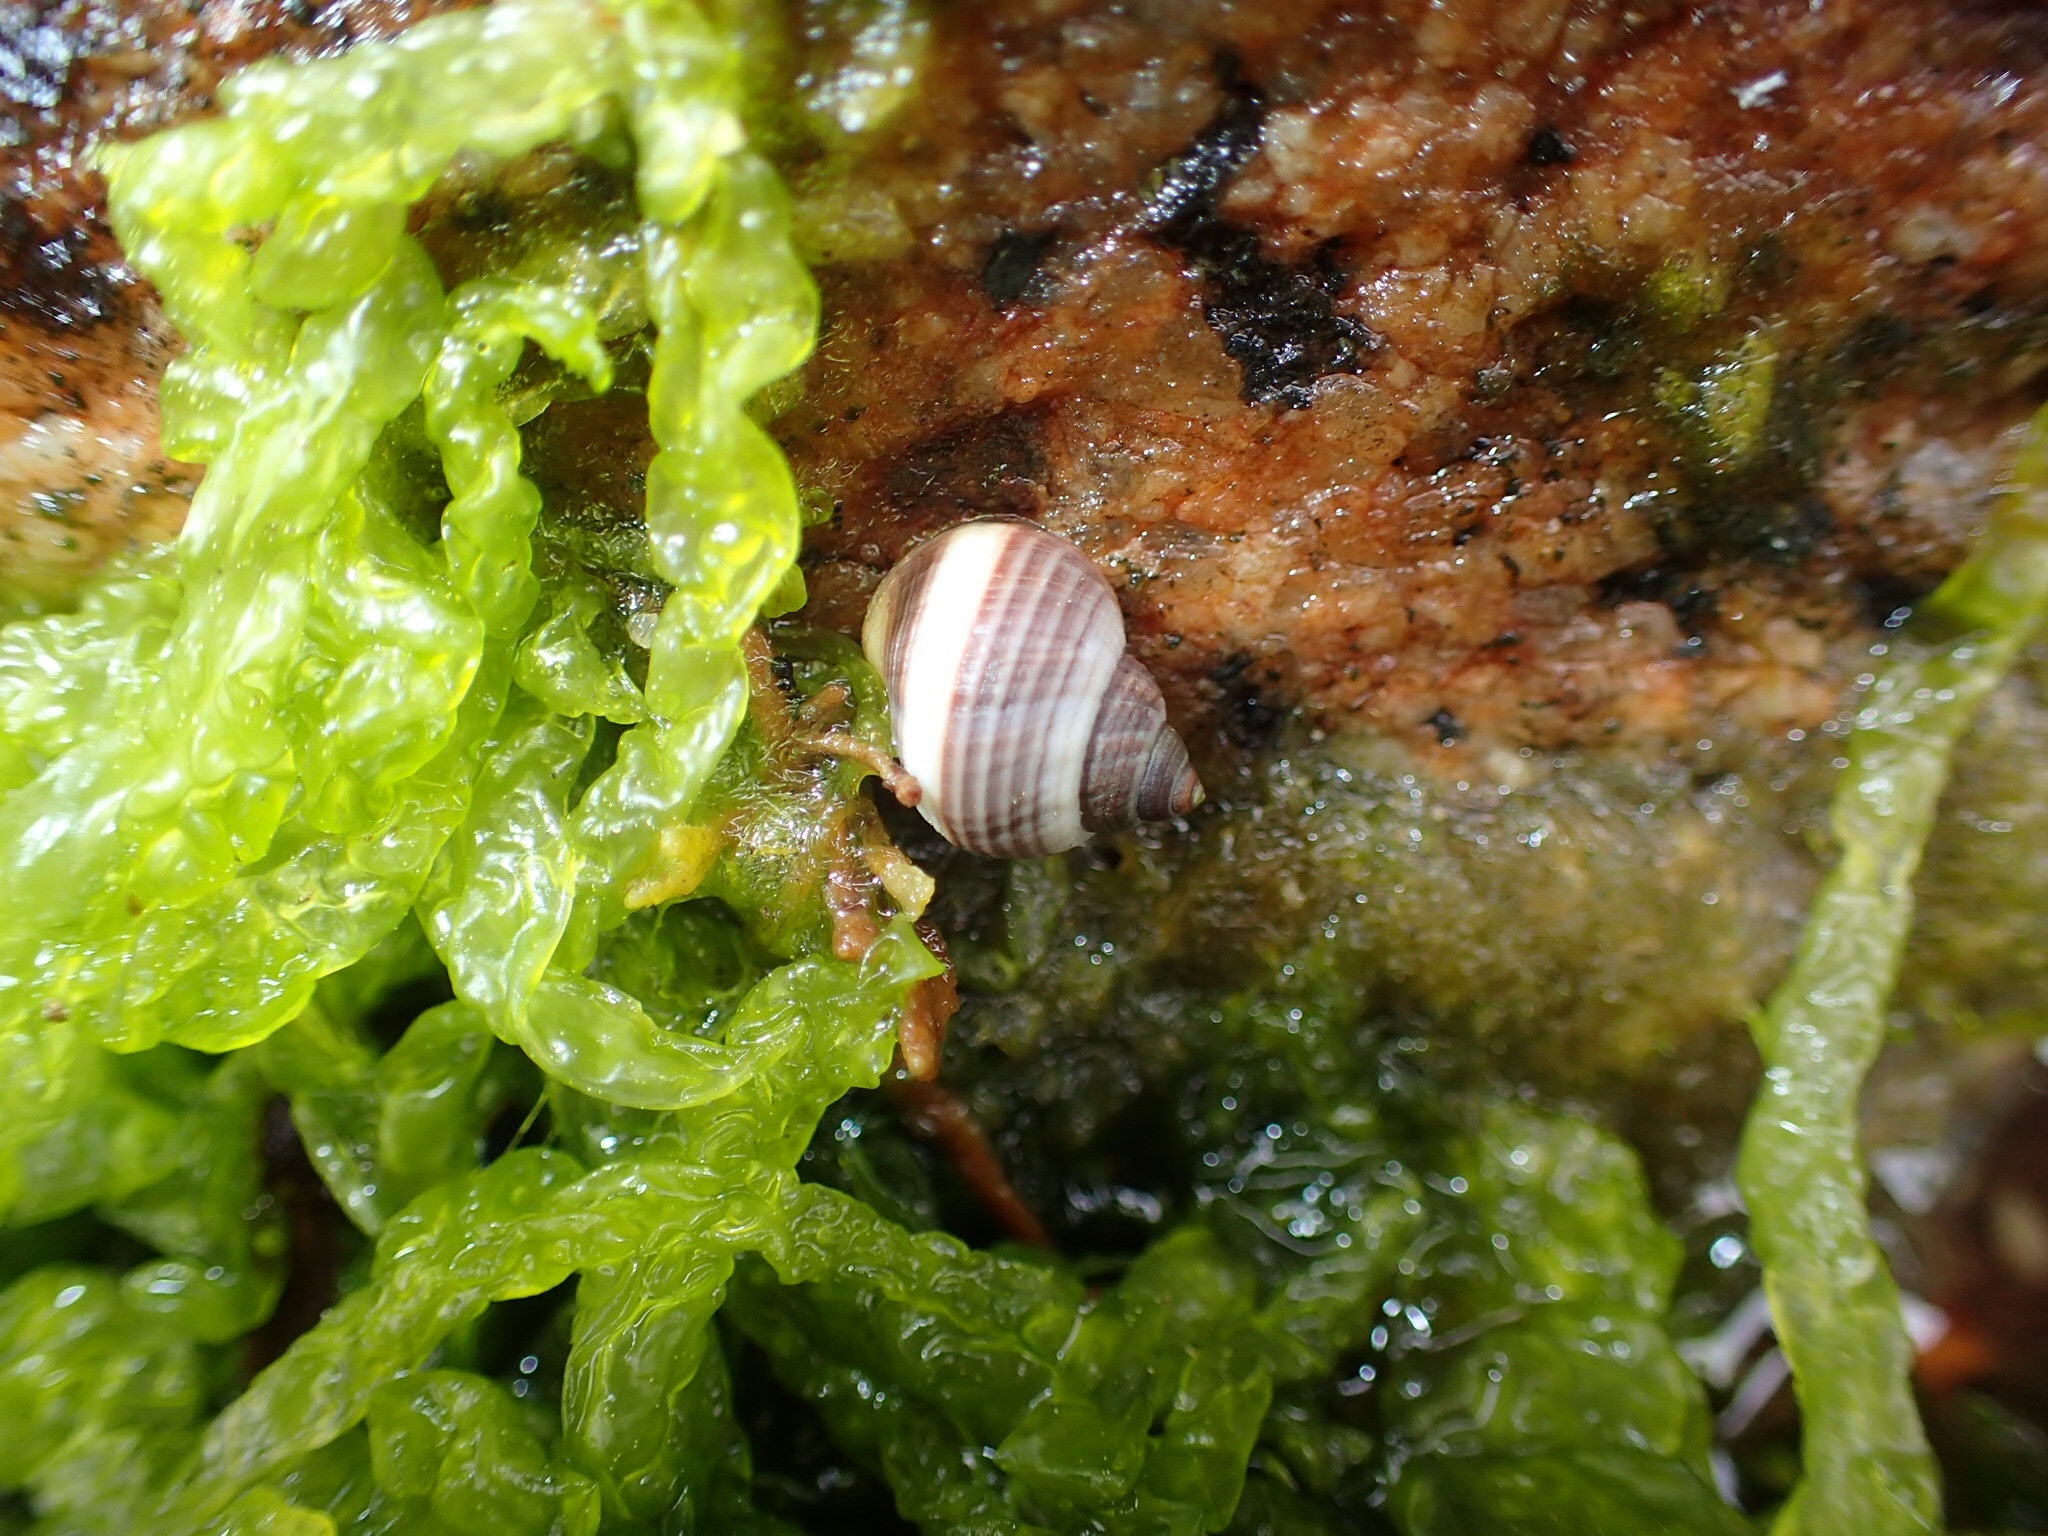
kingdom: Animalia
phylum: Mollusca
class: Gastropoda
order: Littorinimorpha
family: Littorinidae
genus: Littorina
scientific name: Littorina saxatilis
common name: Black-lined periwinkle
